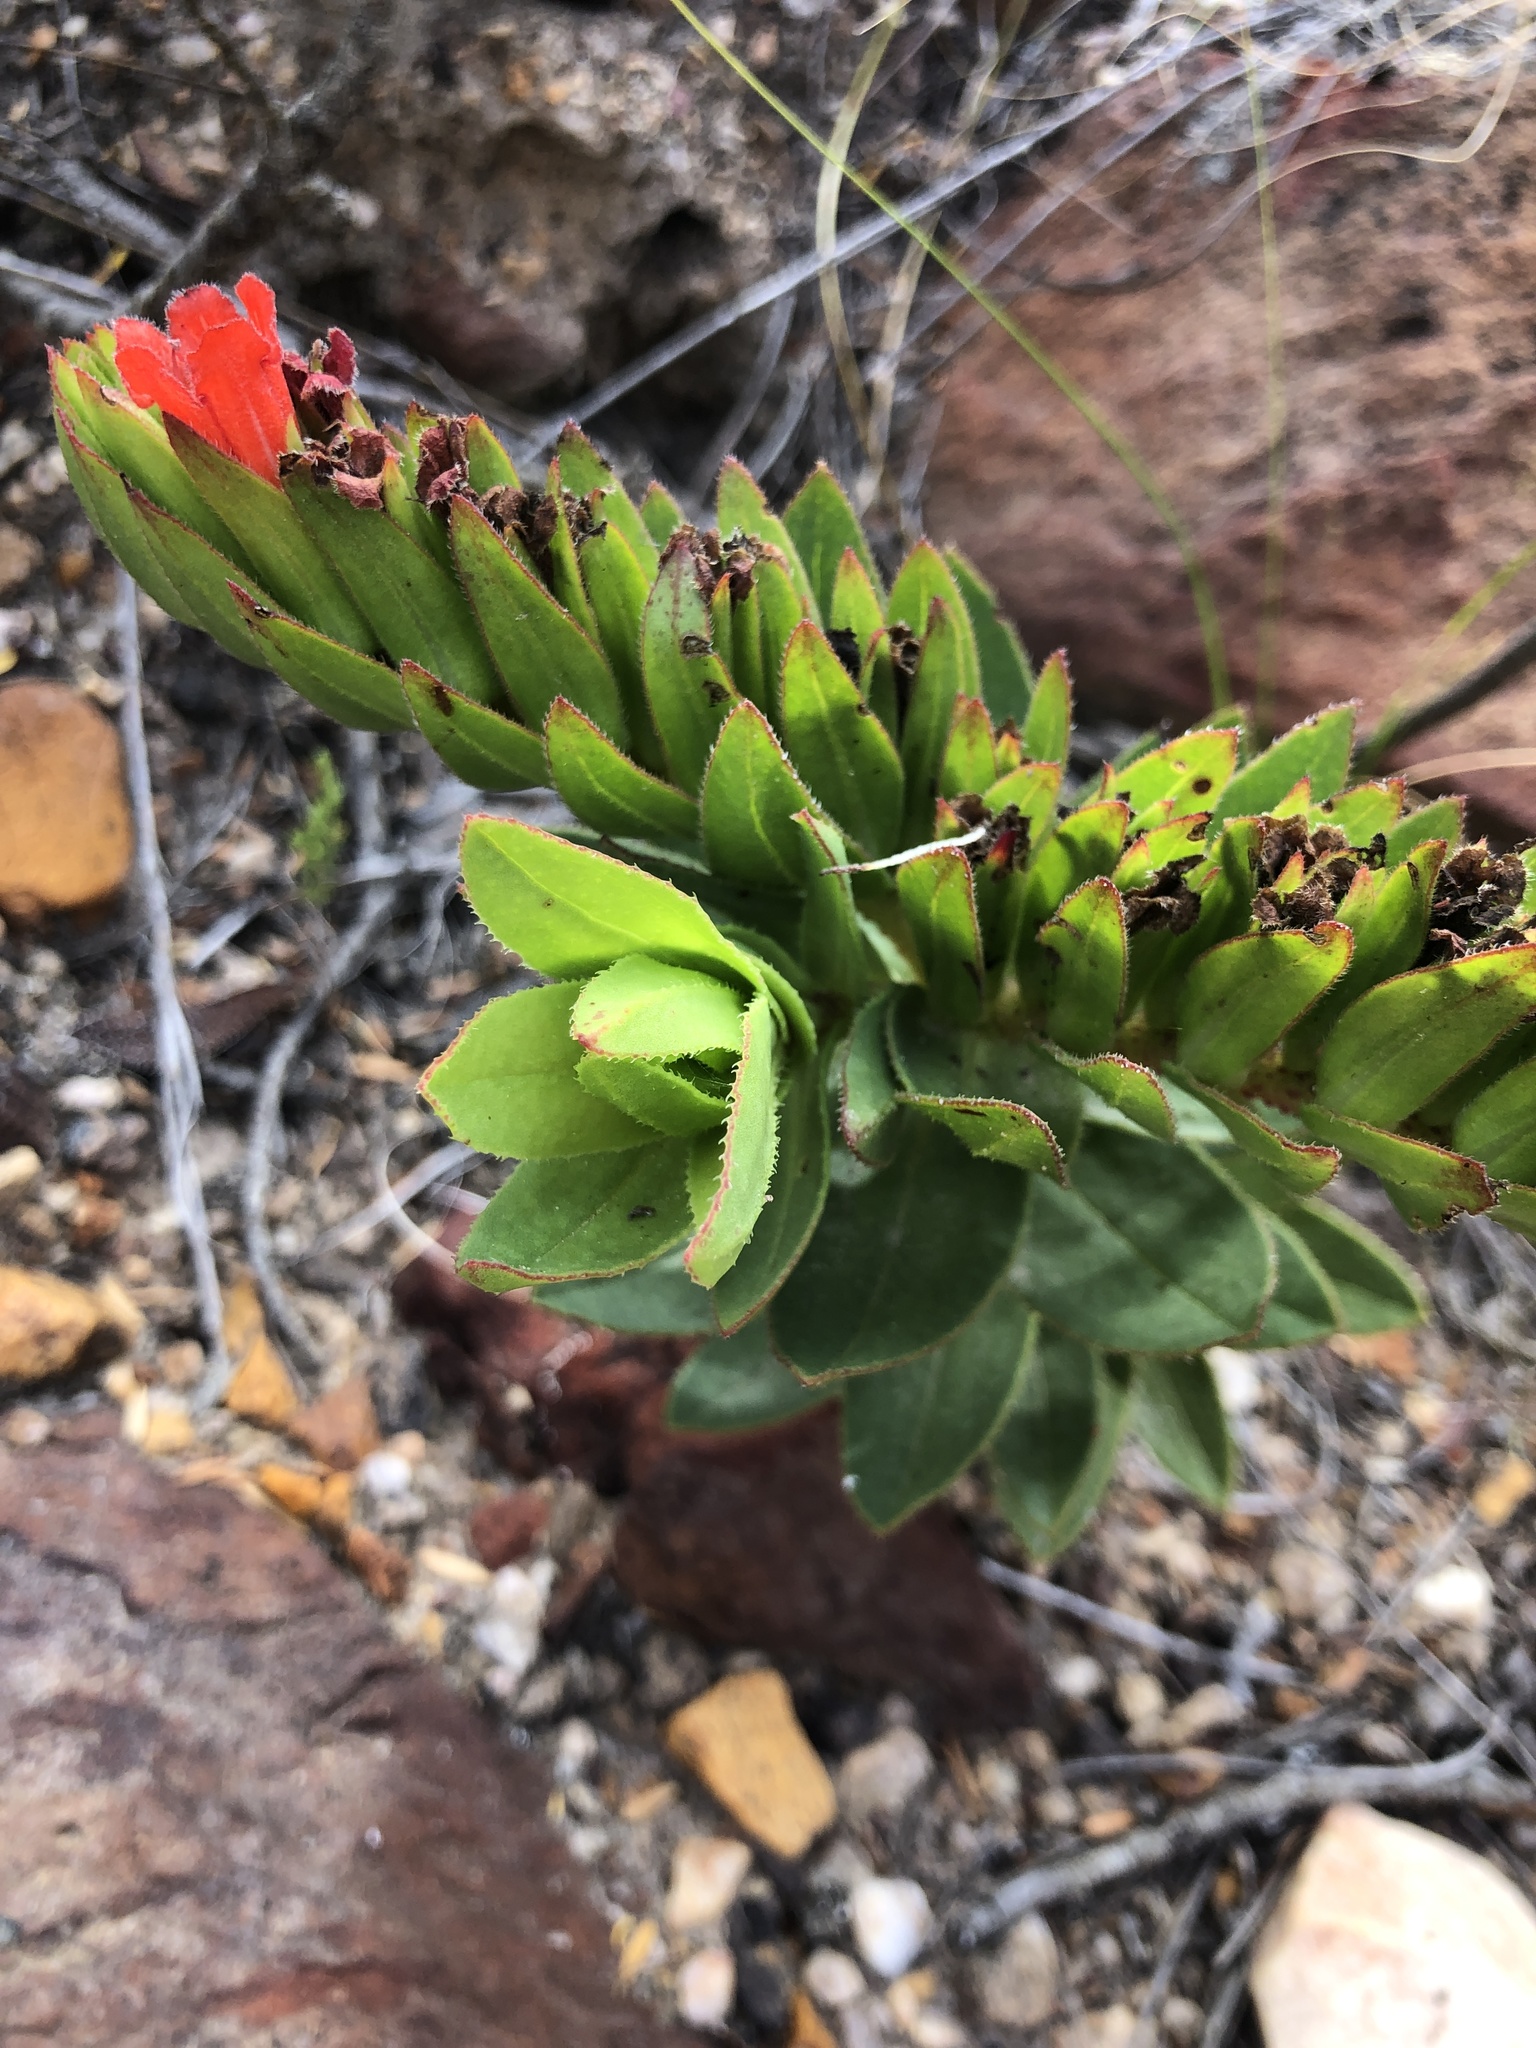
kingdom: Plantae
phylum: Tracheophyta
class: Magnoliopsida
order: Boraginales
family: Boraginaceae
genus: Lobostemon
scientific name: Lobostemon sanguineus
